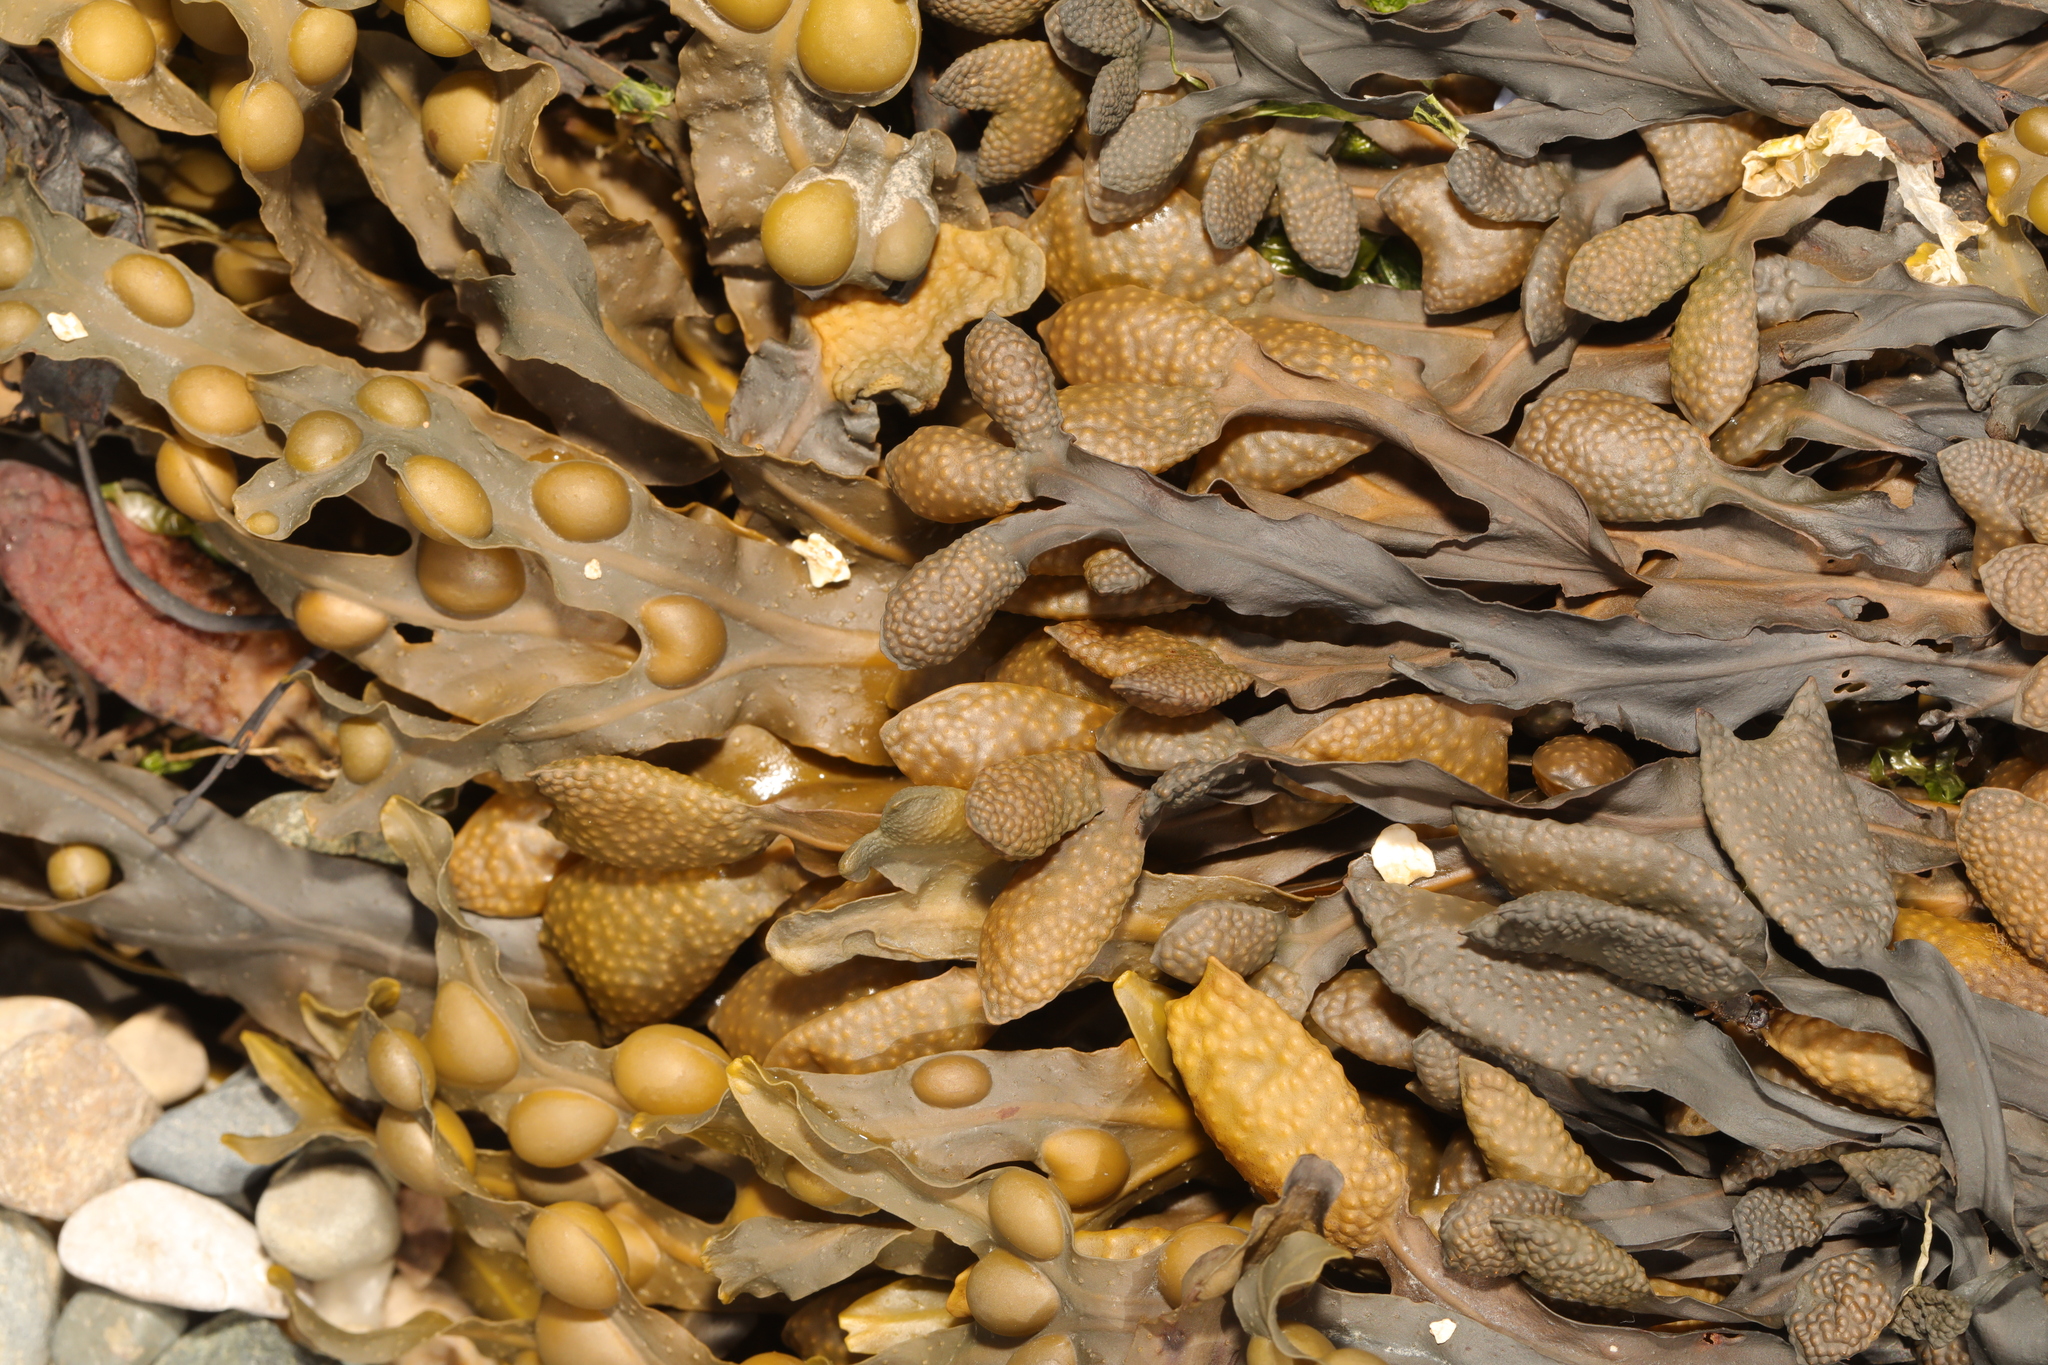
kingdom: Chromista
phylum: Ochrophyta
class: Phaeophyceae
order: Fucales
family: Fucaceae
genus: Fucus
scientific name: Fucus vesiculosus
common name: Bladder wrack
